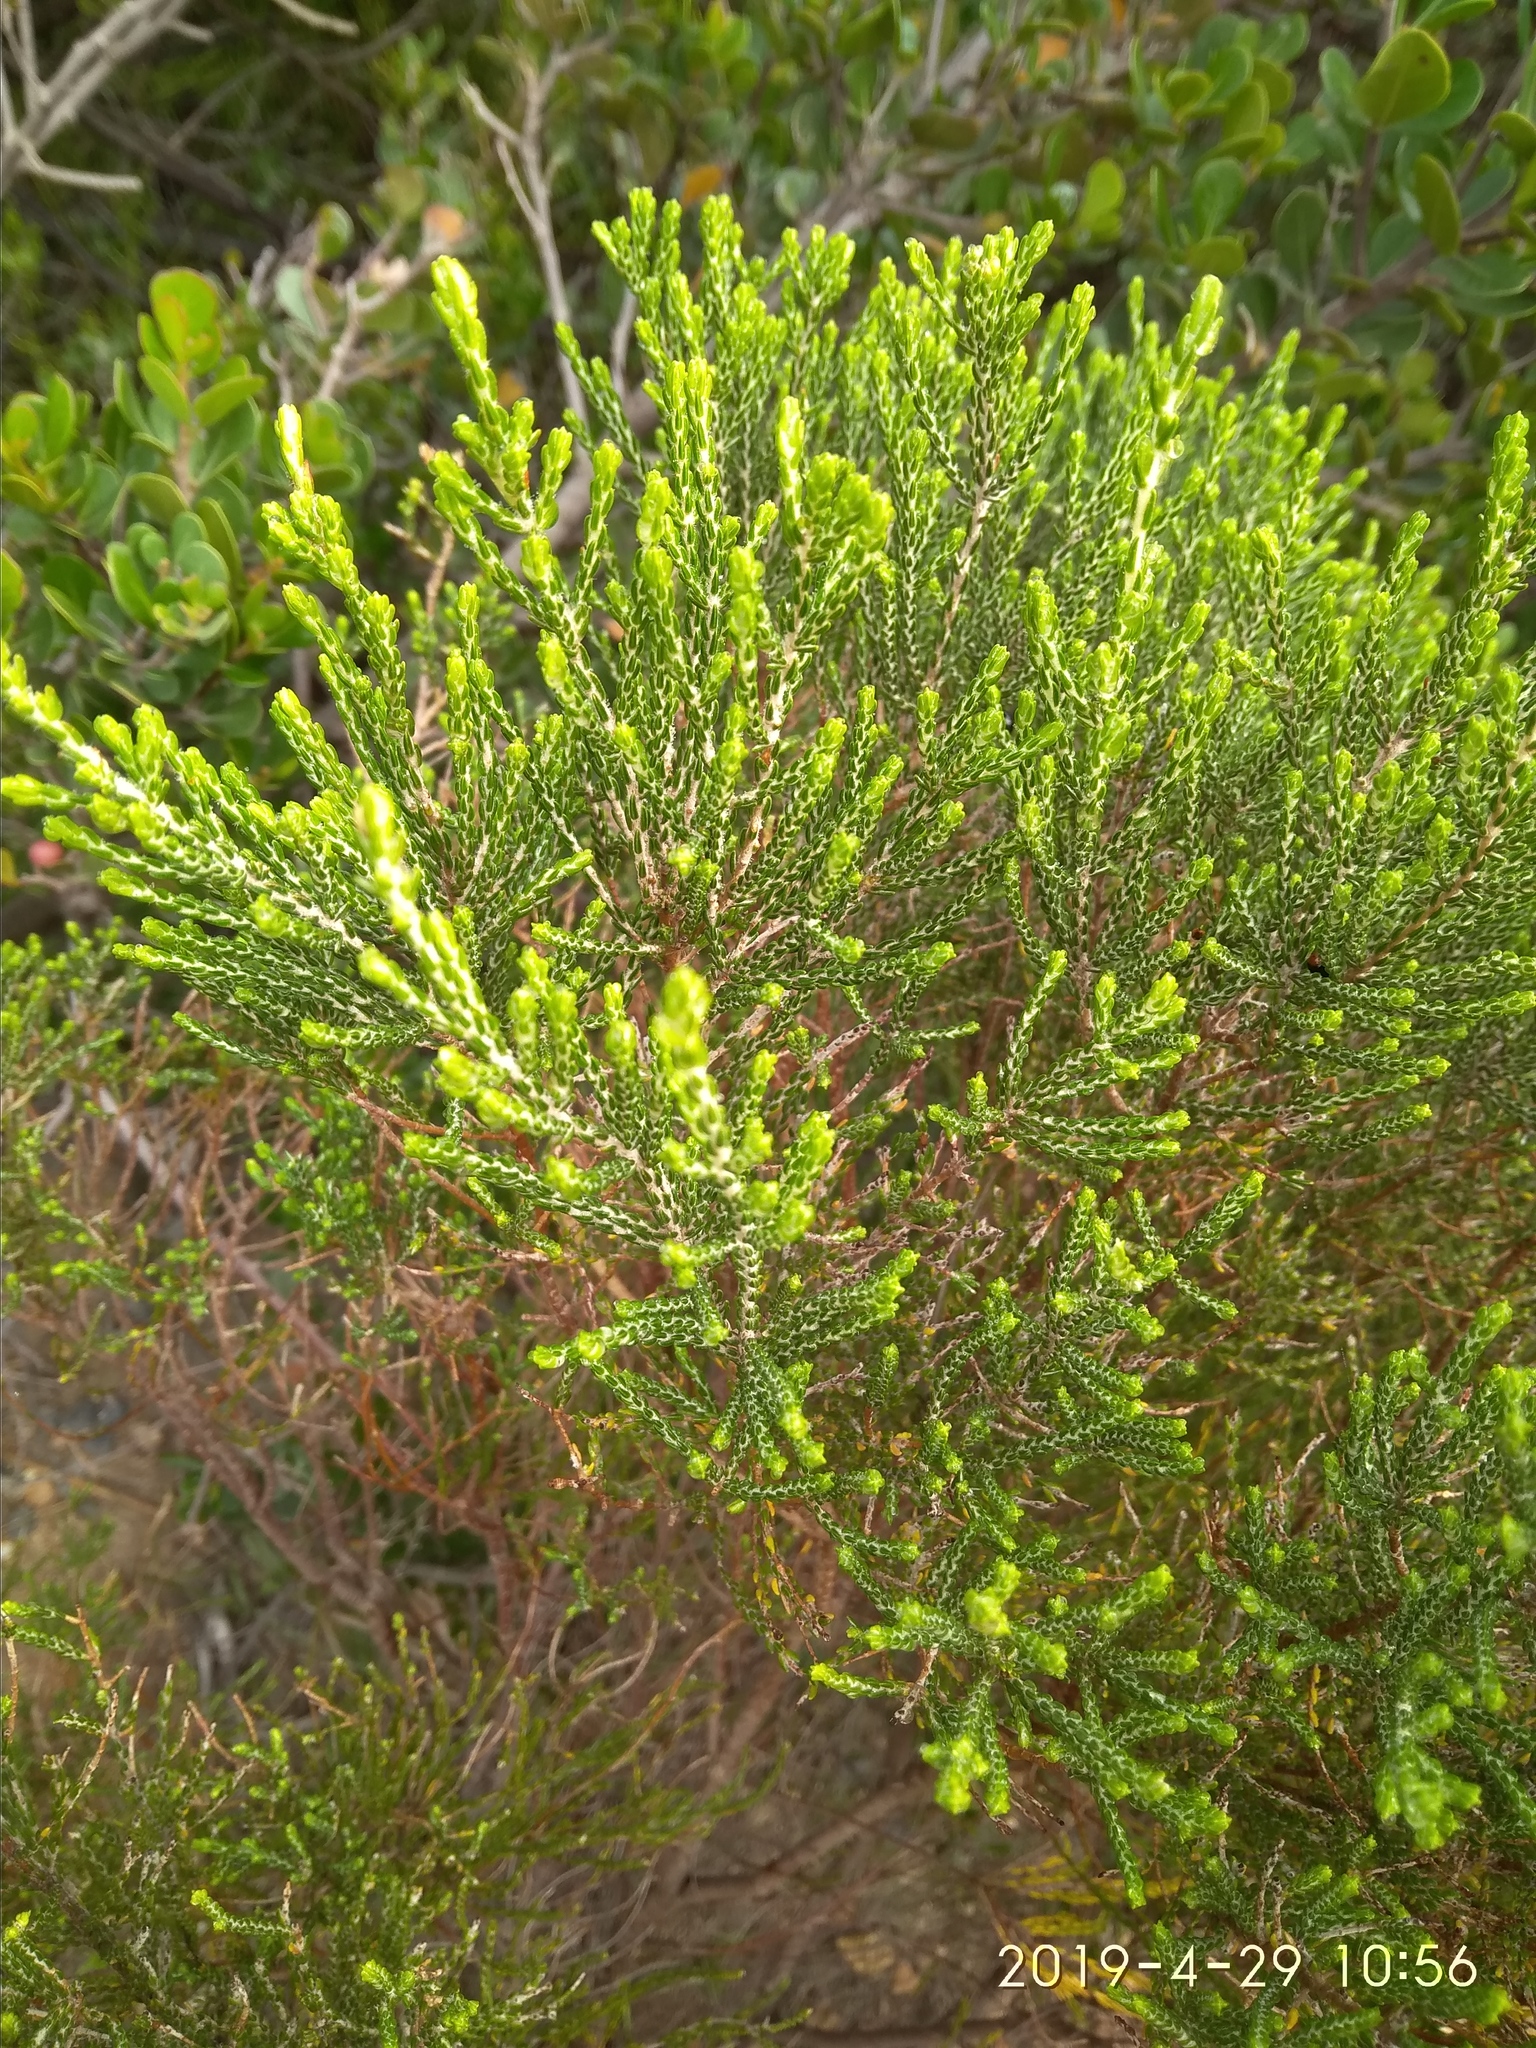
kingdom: Plantae
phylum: Tracheophyta
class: Magnoliopsida
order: Malvales
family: Thymelaeaceae
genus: Passerina
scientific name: Passerina corymbosa
